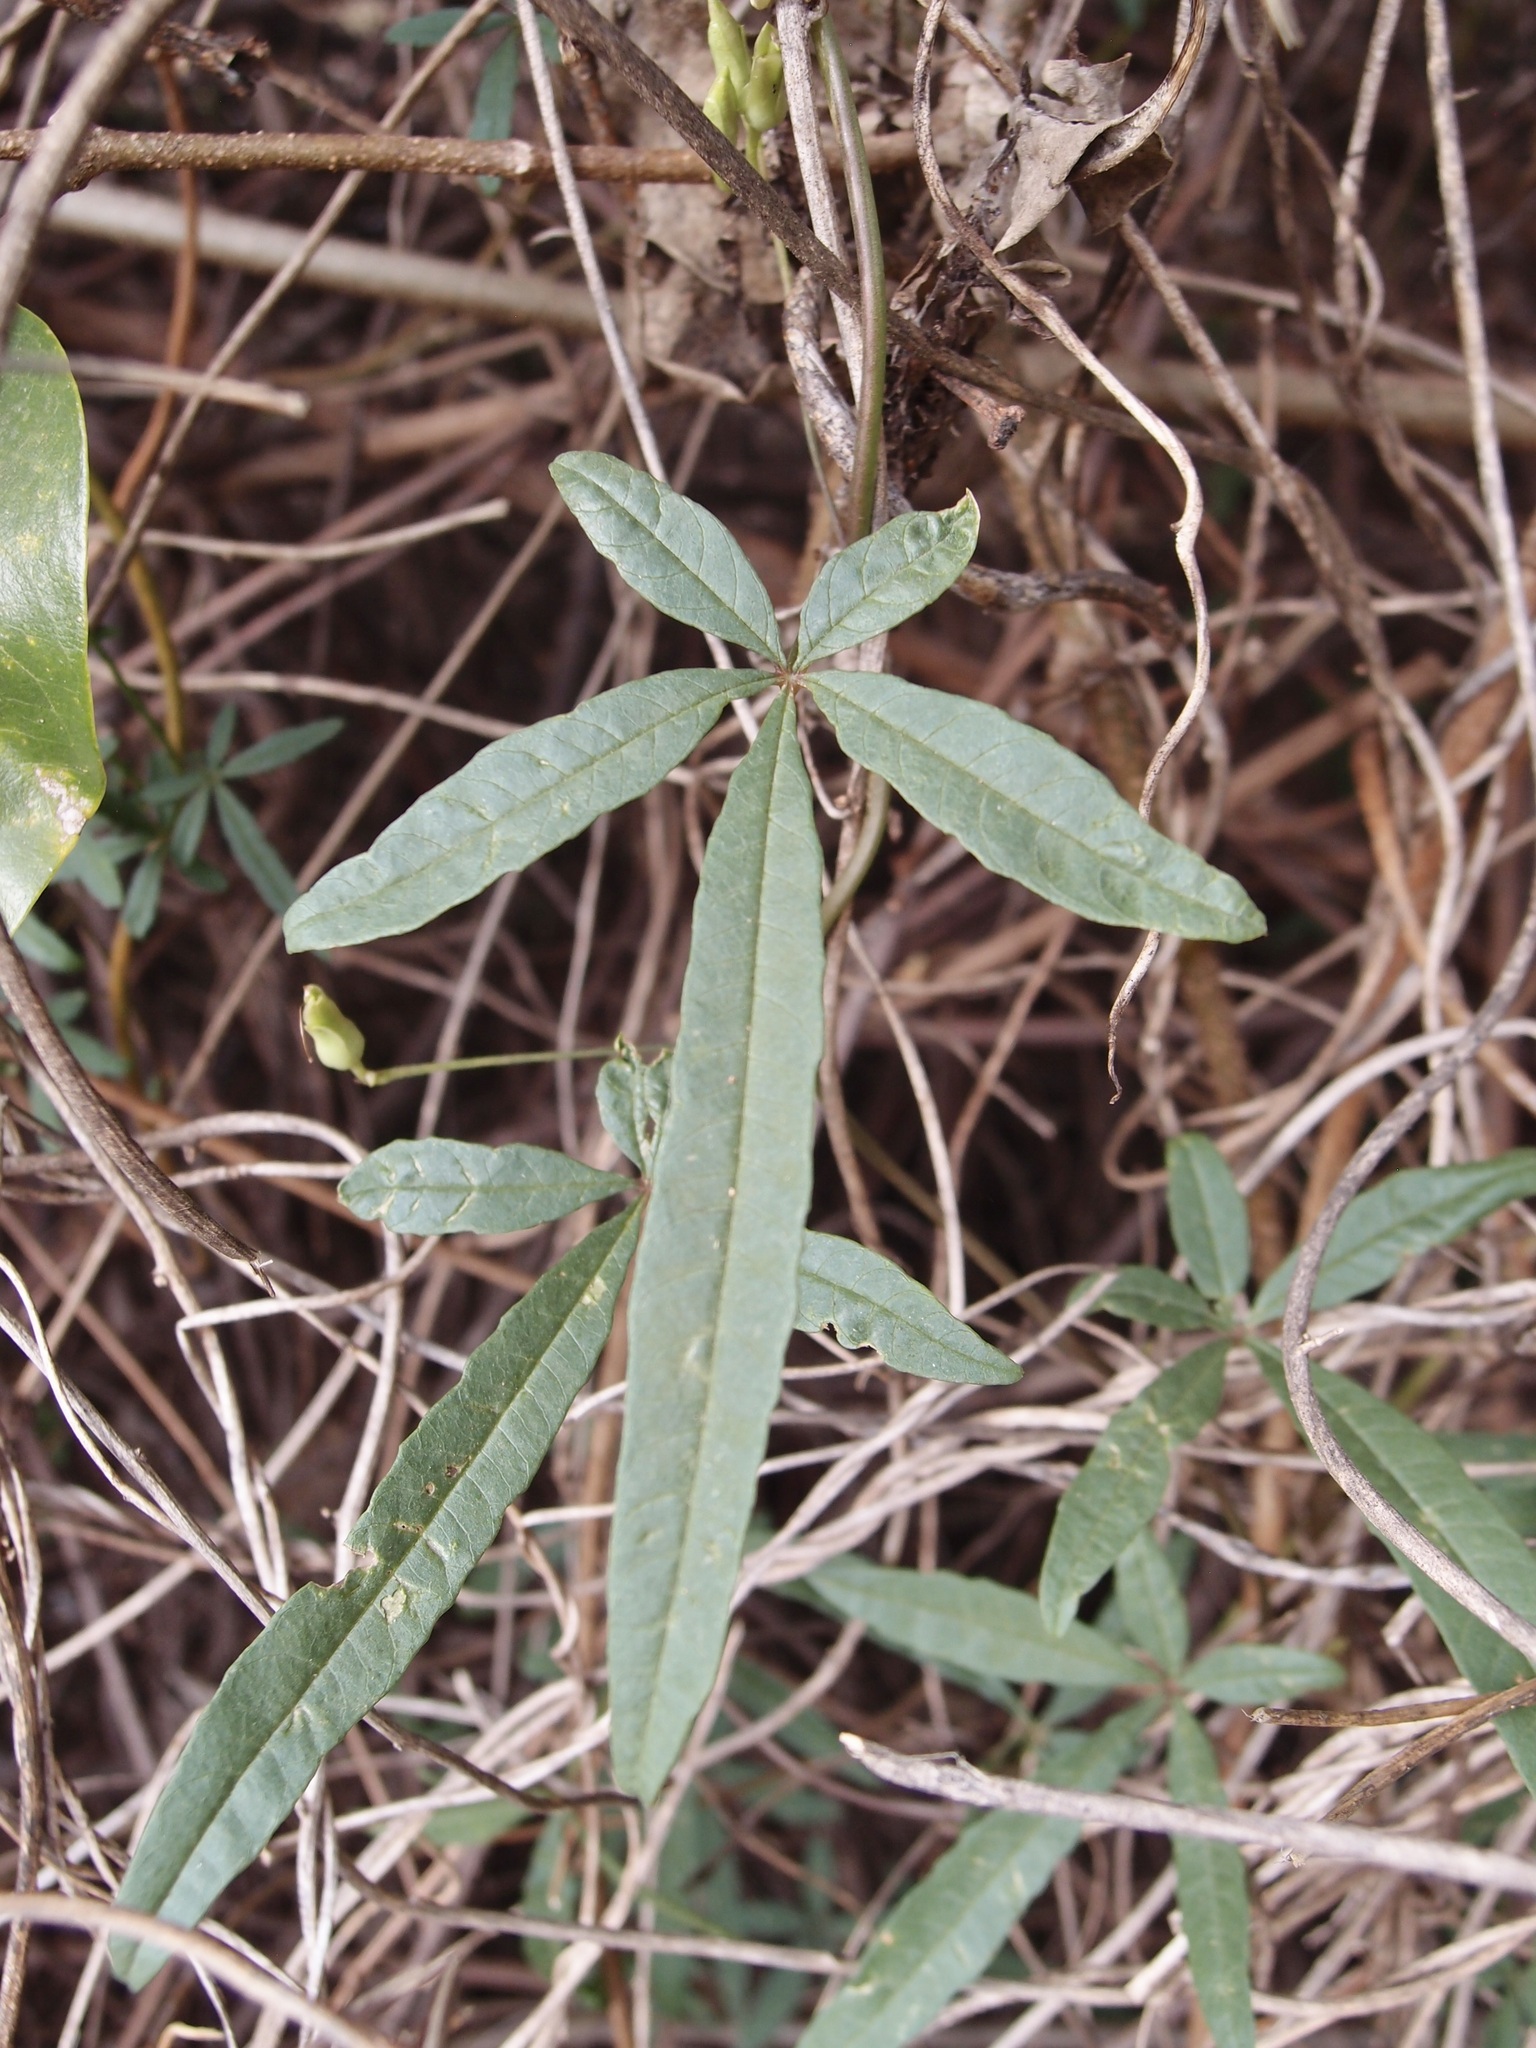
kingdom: Plantae
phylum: Tracheophyta
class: Magnoliopsida
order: Solanales
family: Convolvulaceae
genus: Distimake
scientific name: Distimake quinquefolius
